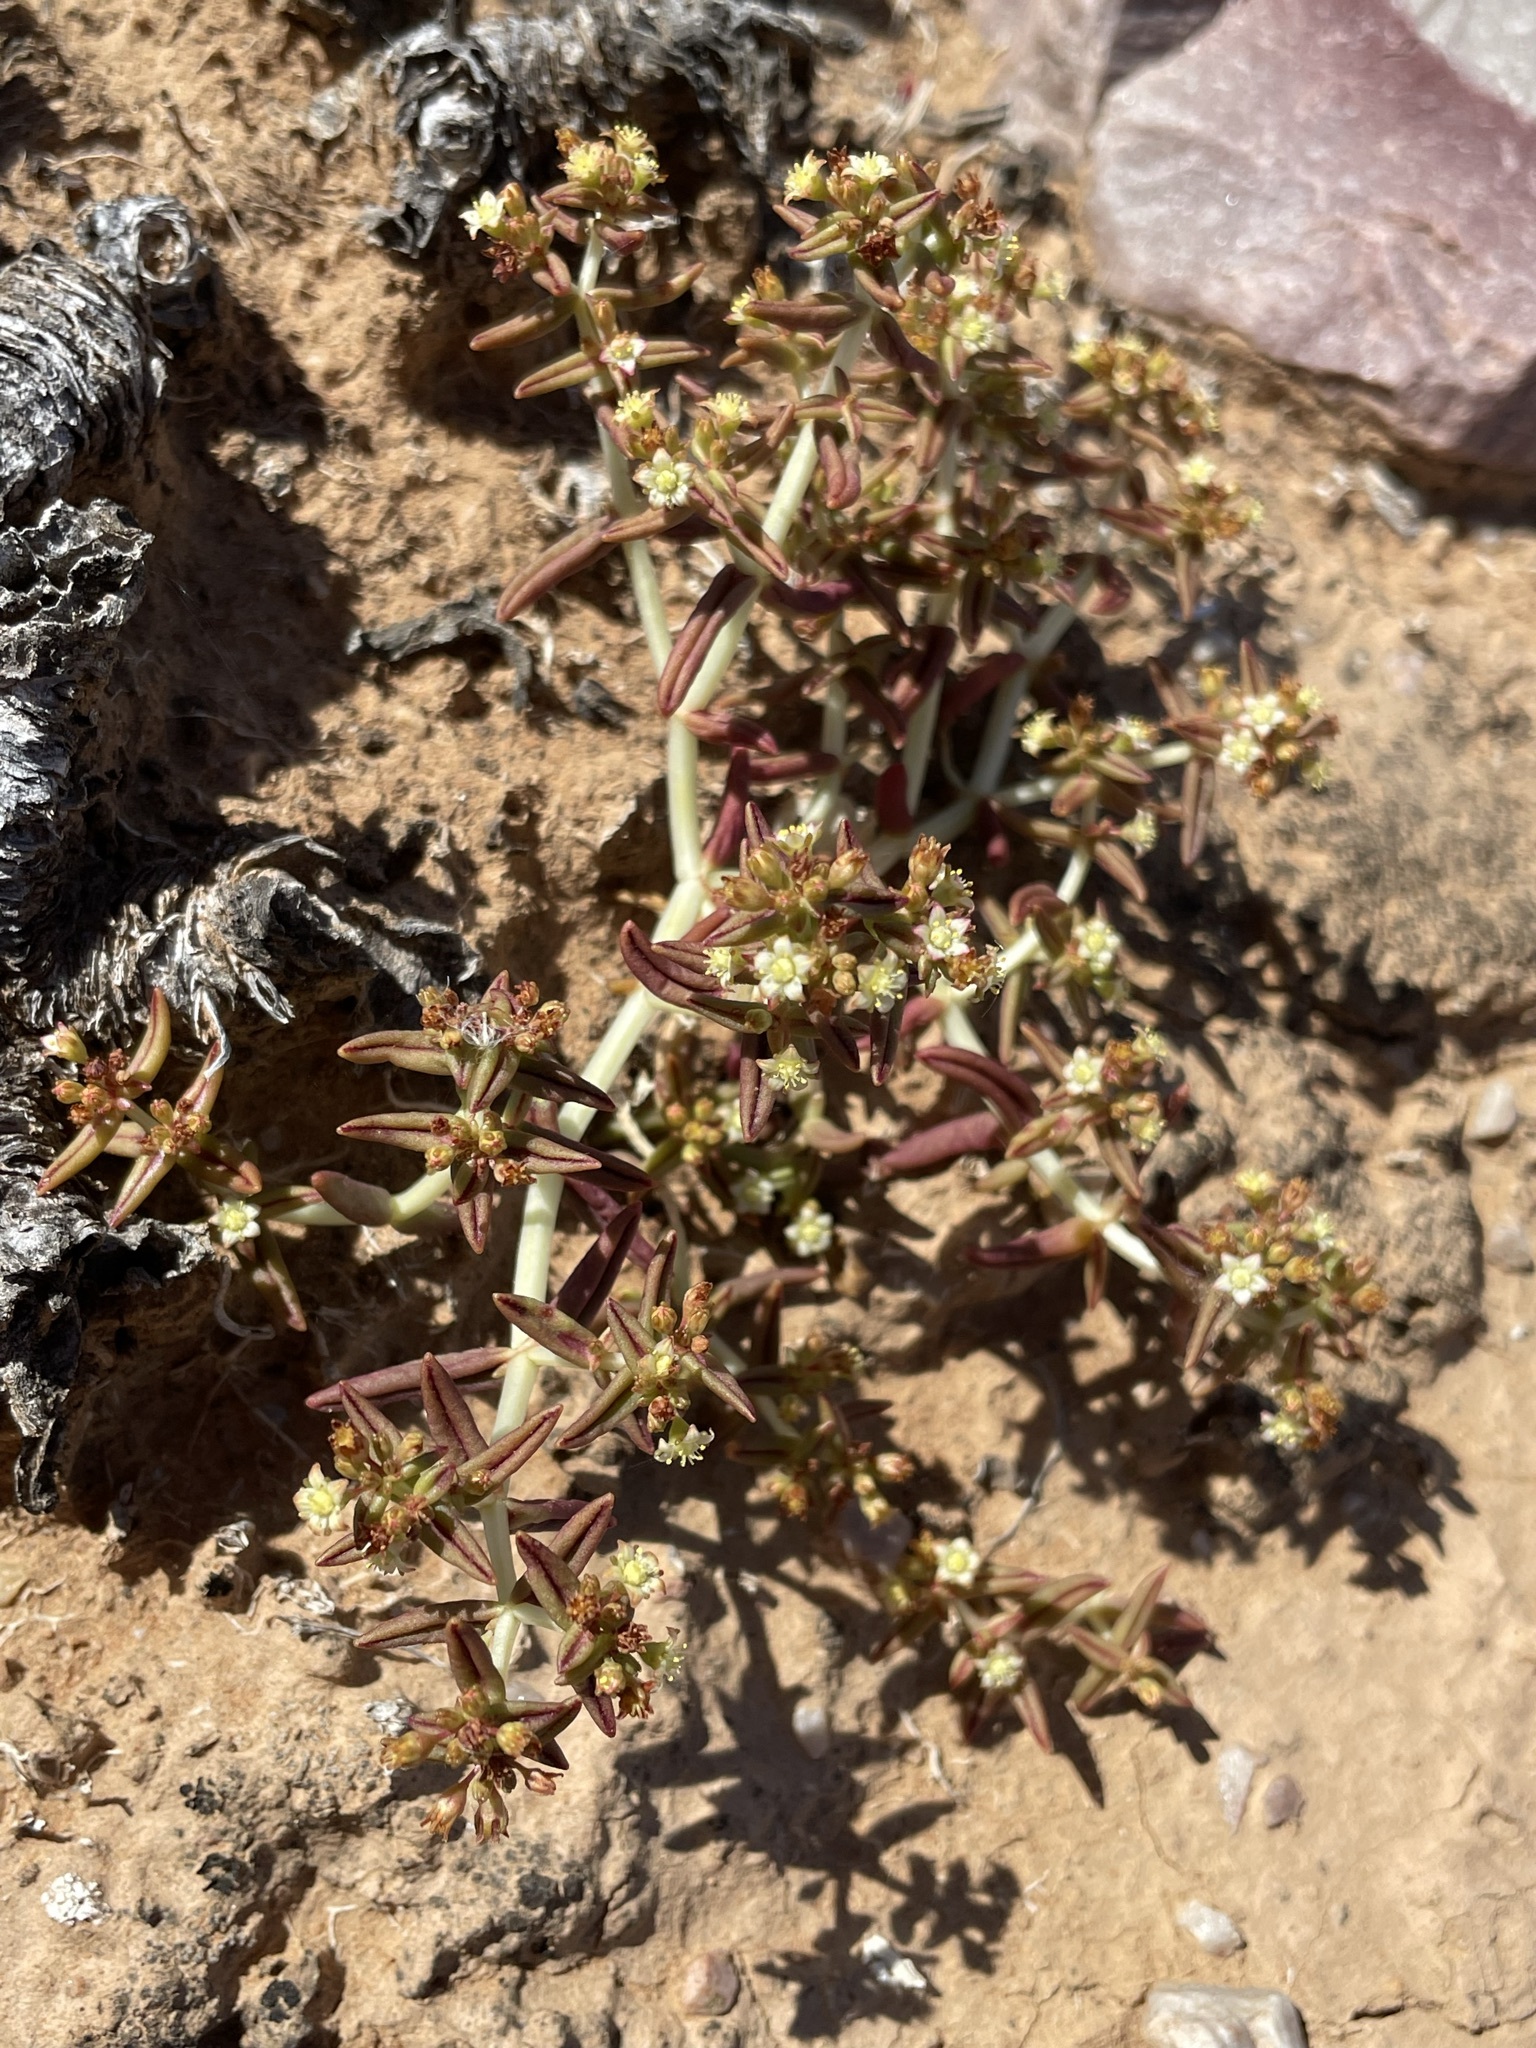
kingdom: Plantae
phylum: Tracheophyta
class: Magnoliopsida
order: Saxifragales
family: Crassulaceae
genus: Crassula
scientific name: Crassula expansa
